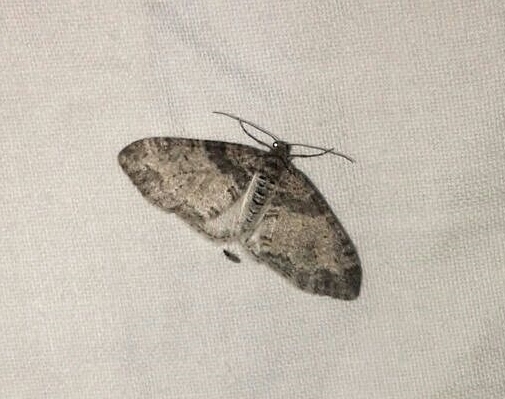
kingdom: Animalia
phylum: Arthropoda
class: Insecta
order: Lepidoptera
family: Geometridae
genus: Lobophora
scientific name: Lobophora halterata
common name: Seraphim
